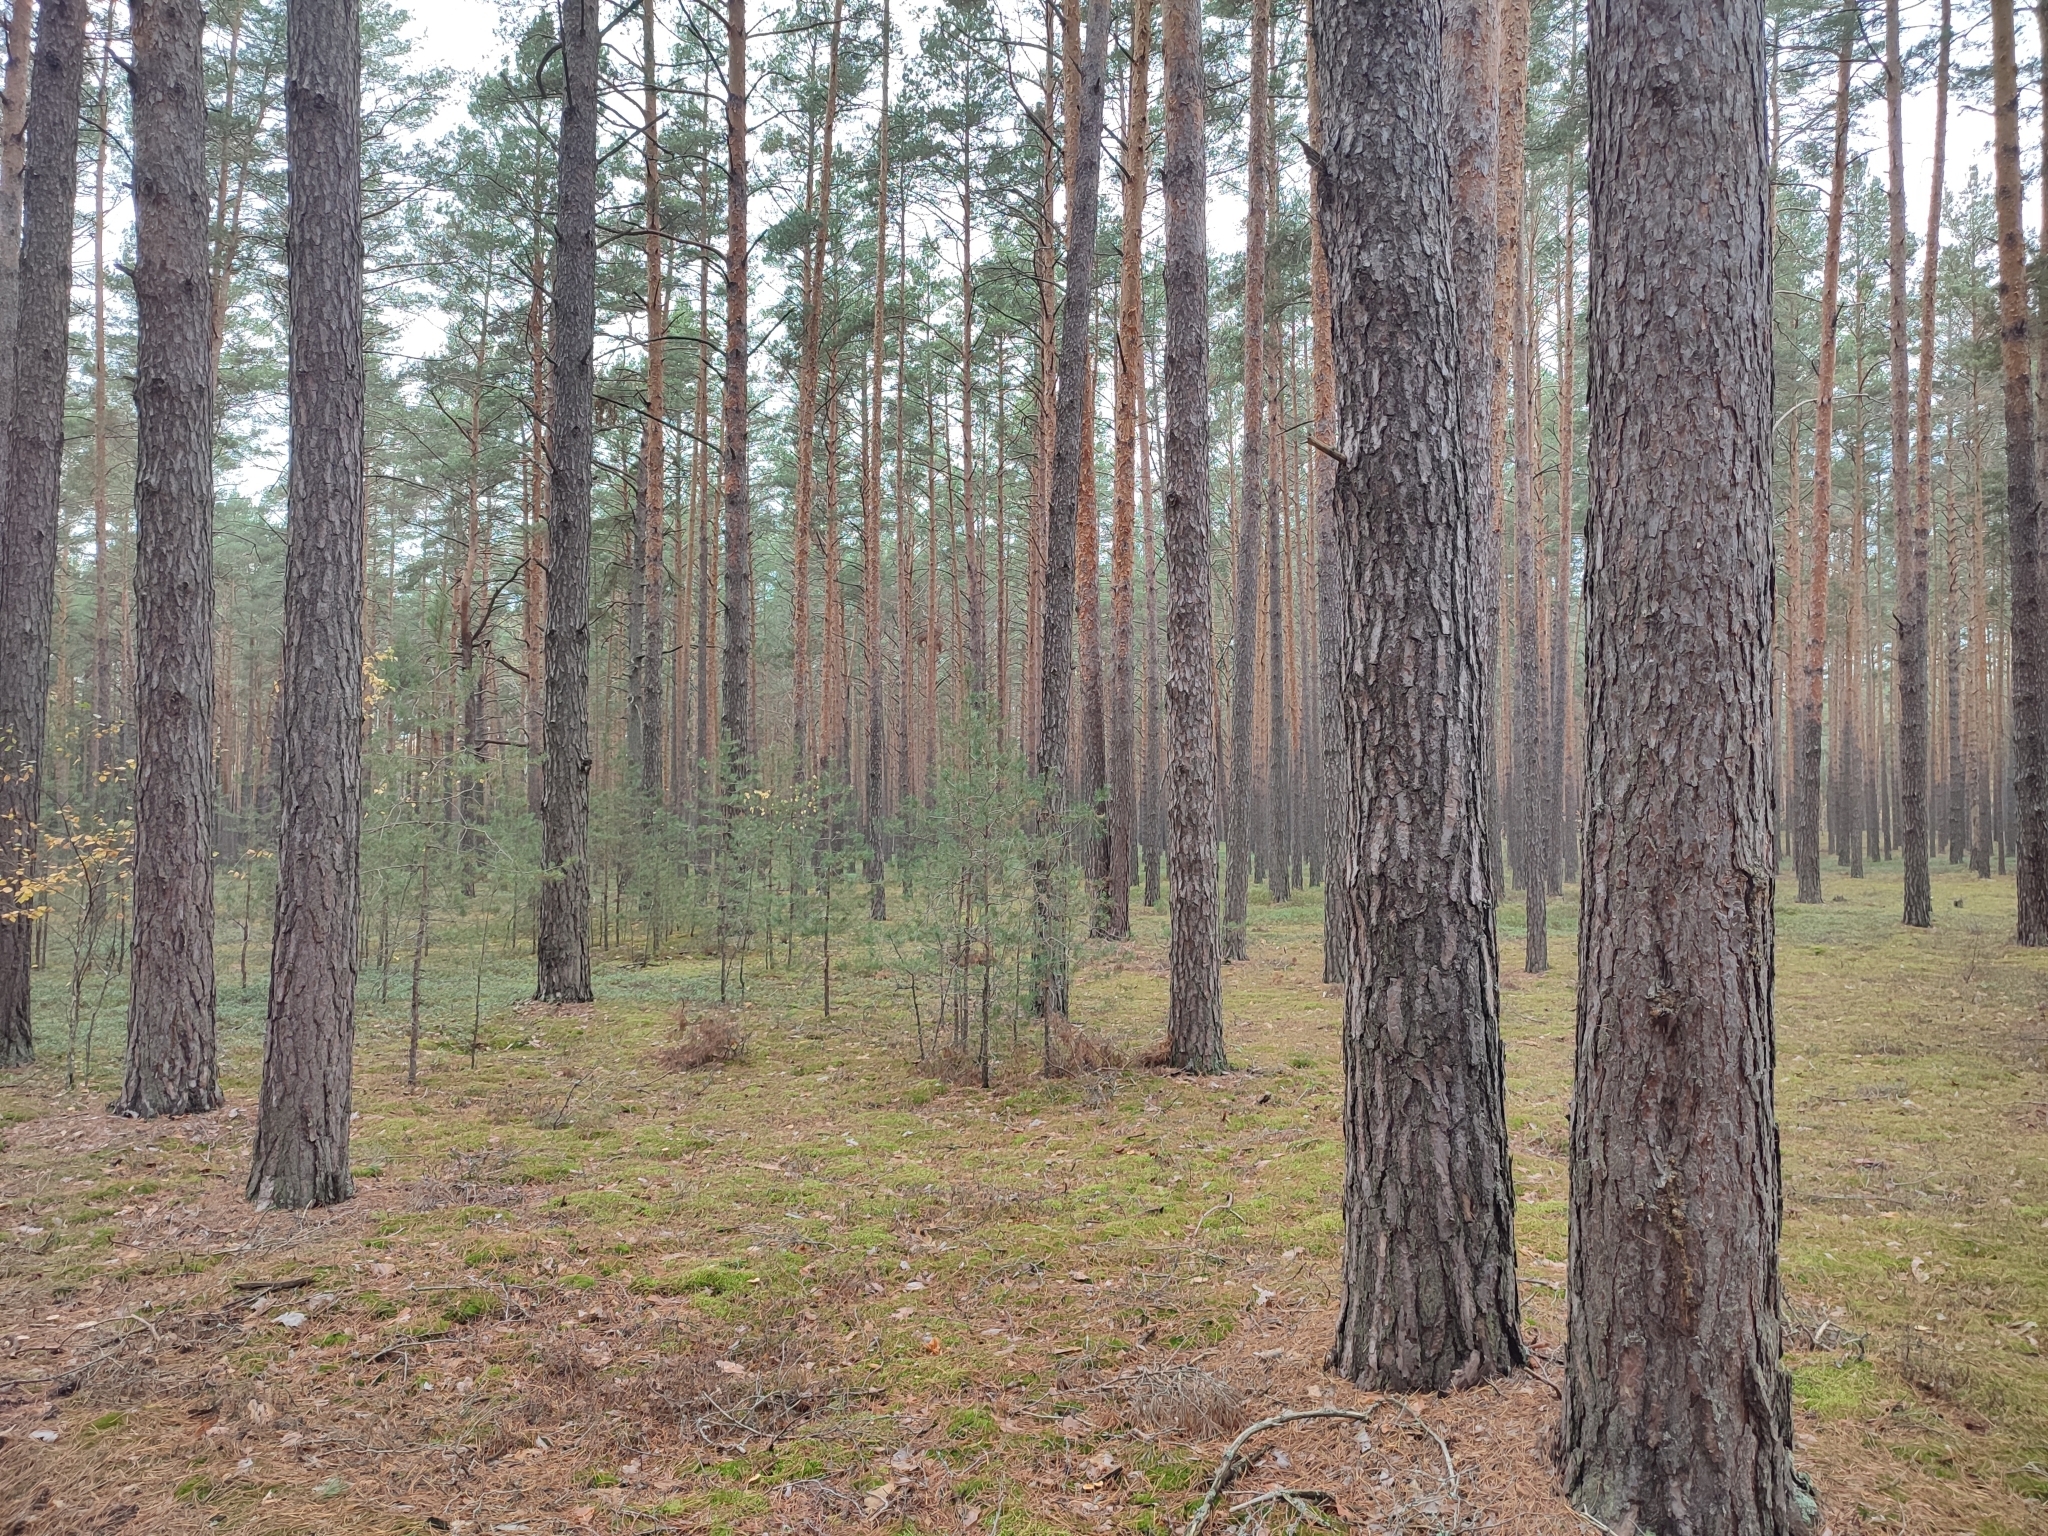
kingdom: Plantae
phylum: Tracheophyta
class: Pinopsida
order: Pinales
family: Pinaceae
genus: Pinus
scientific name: Pinus sylvestris
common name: Scots pine
